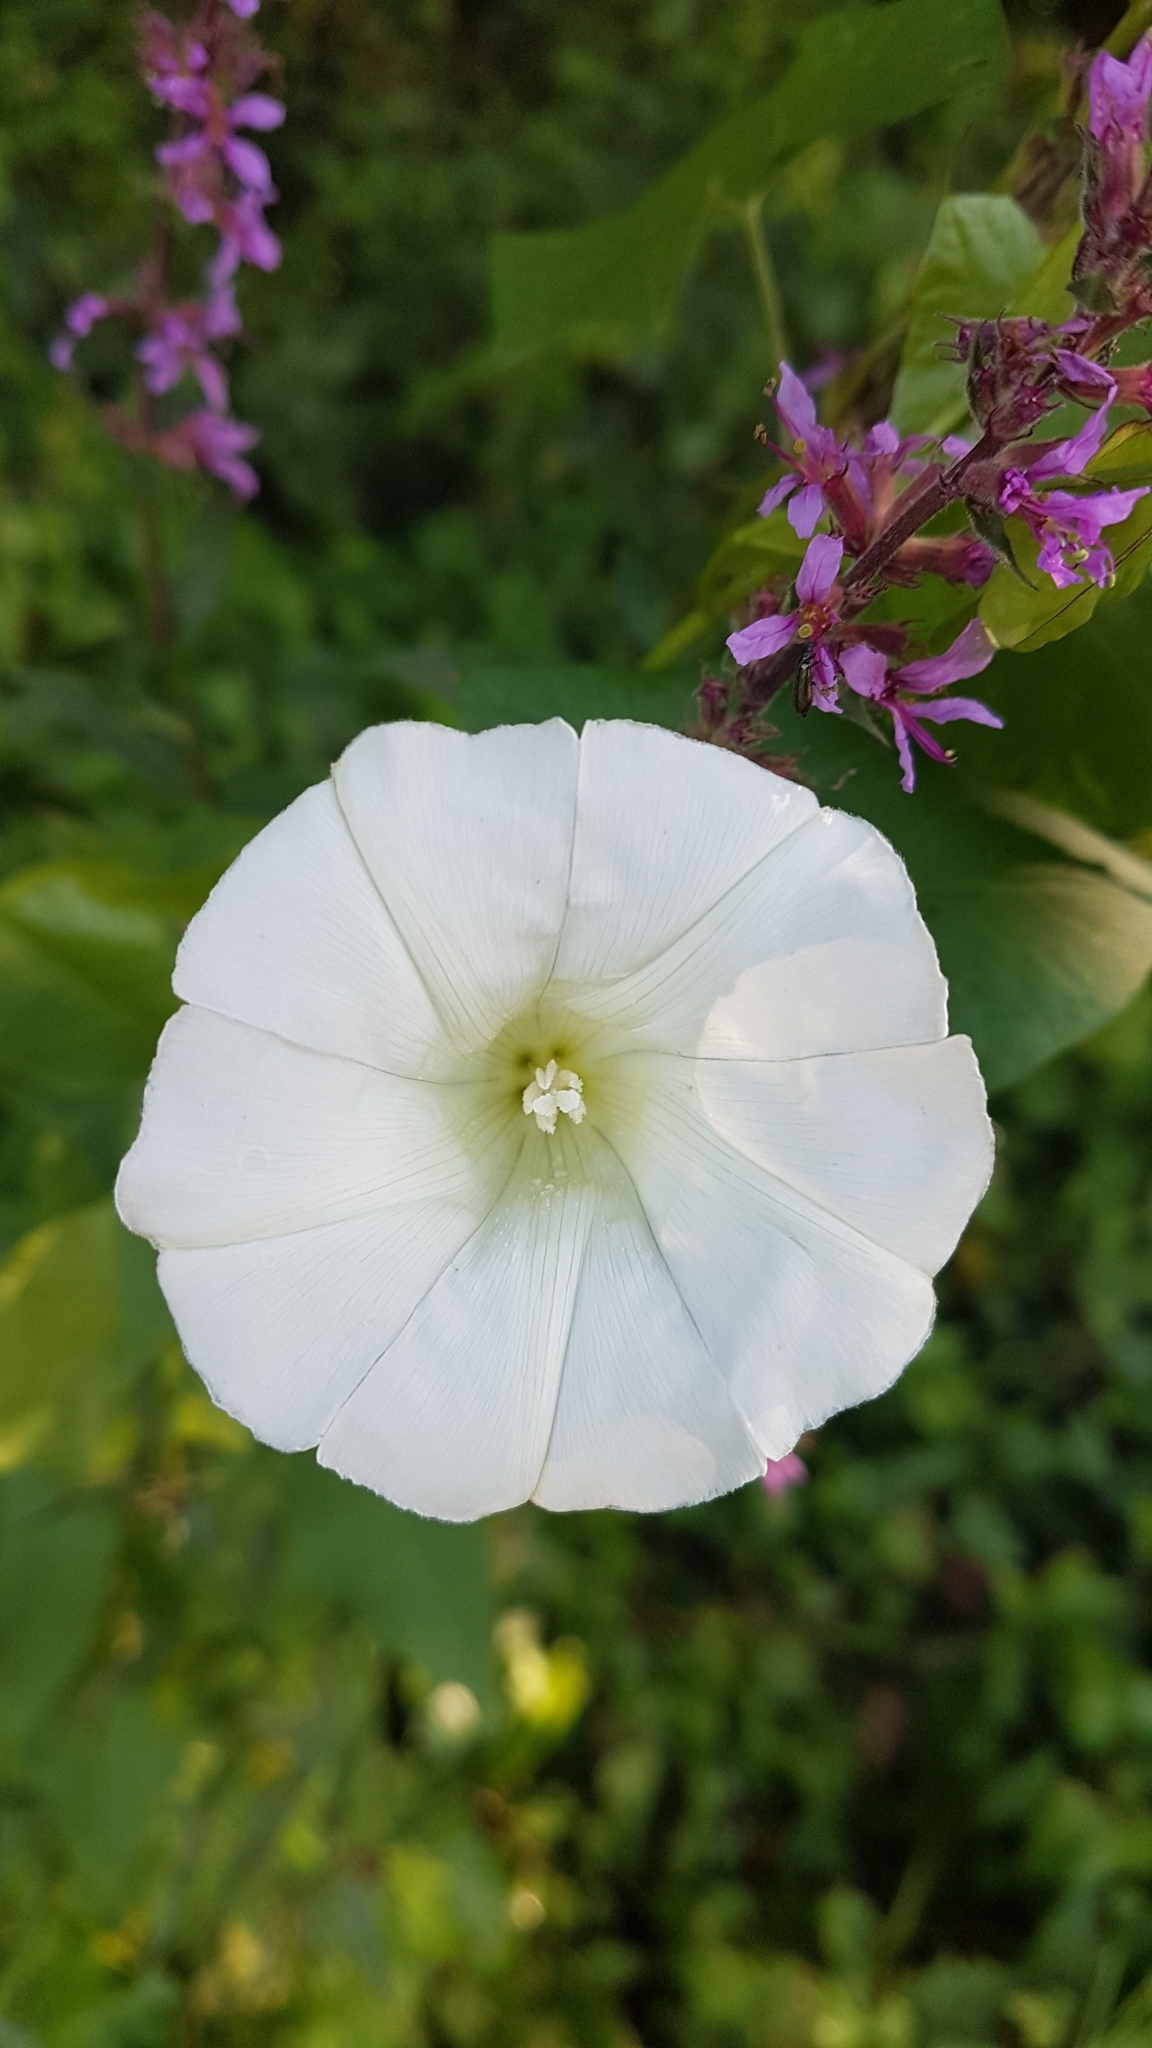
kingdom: Plantae
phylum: Tracheophyta
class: Magnoliopsida
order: Solanales
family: Convolvulaceae
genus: Convolvulus
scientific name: Convolvulus arvensis
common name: Field bindweed
